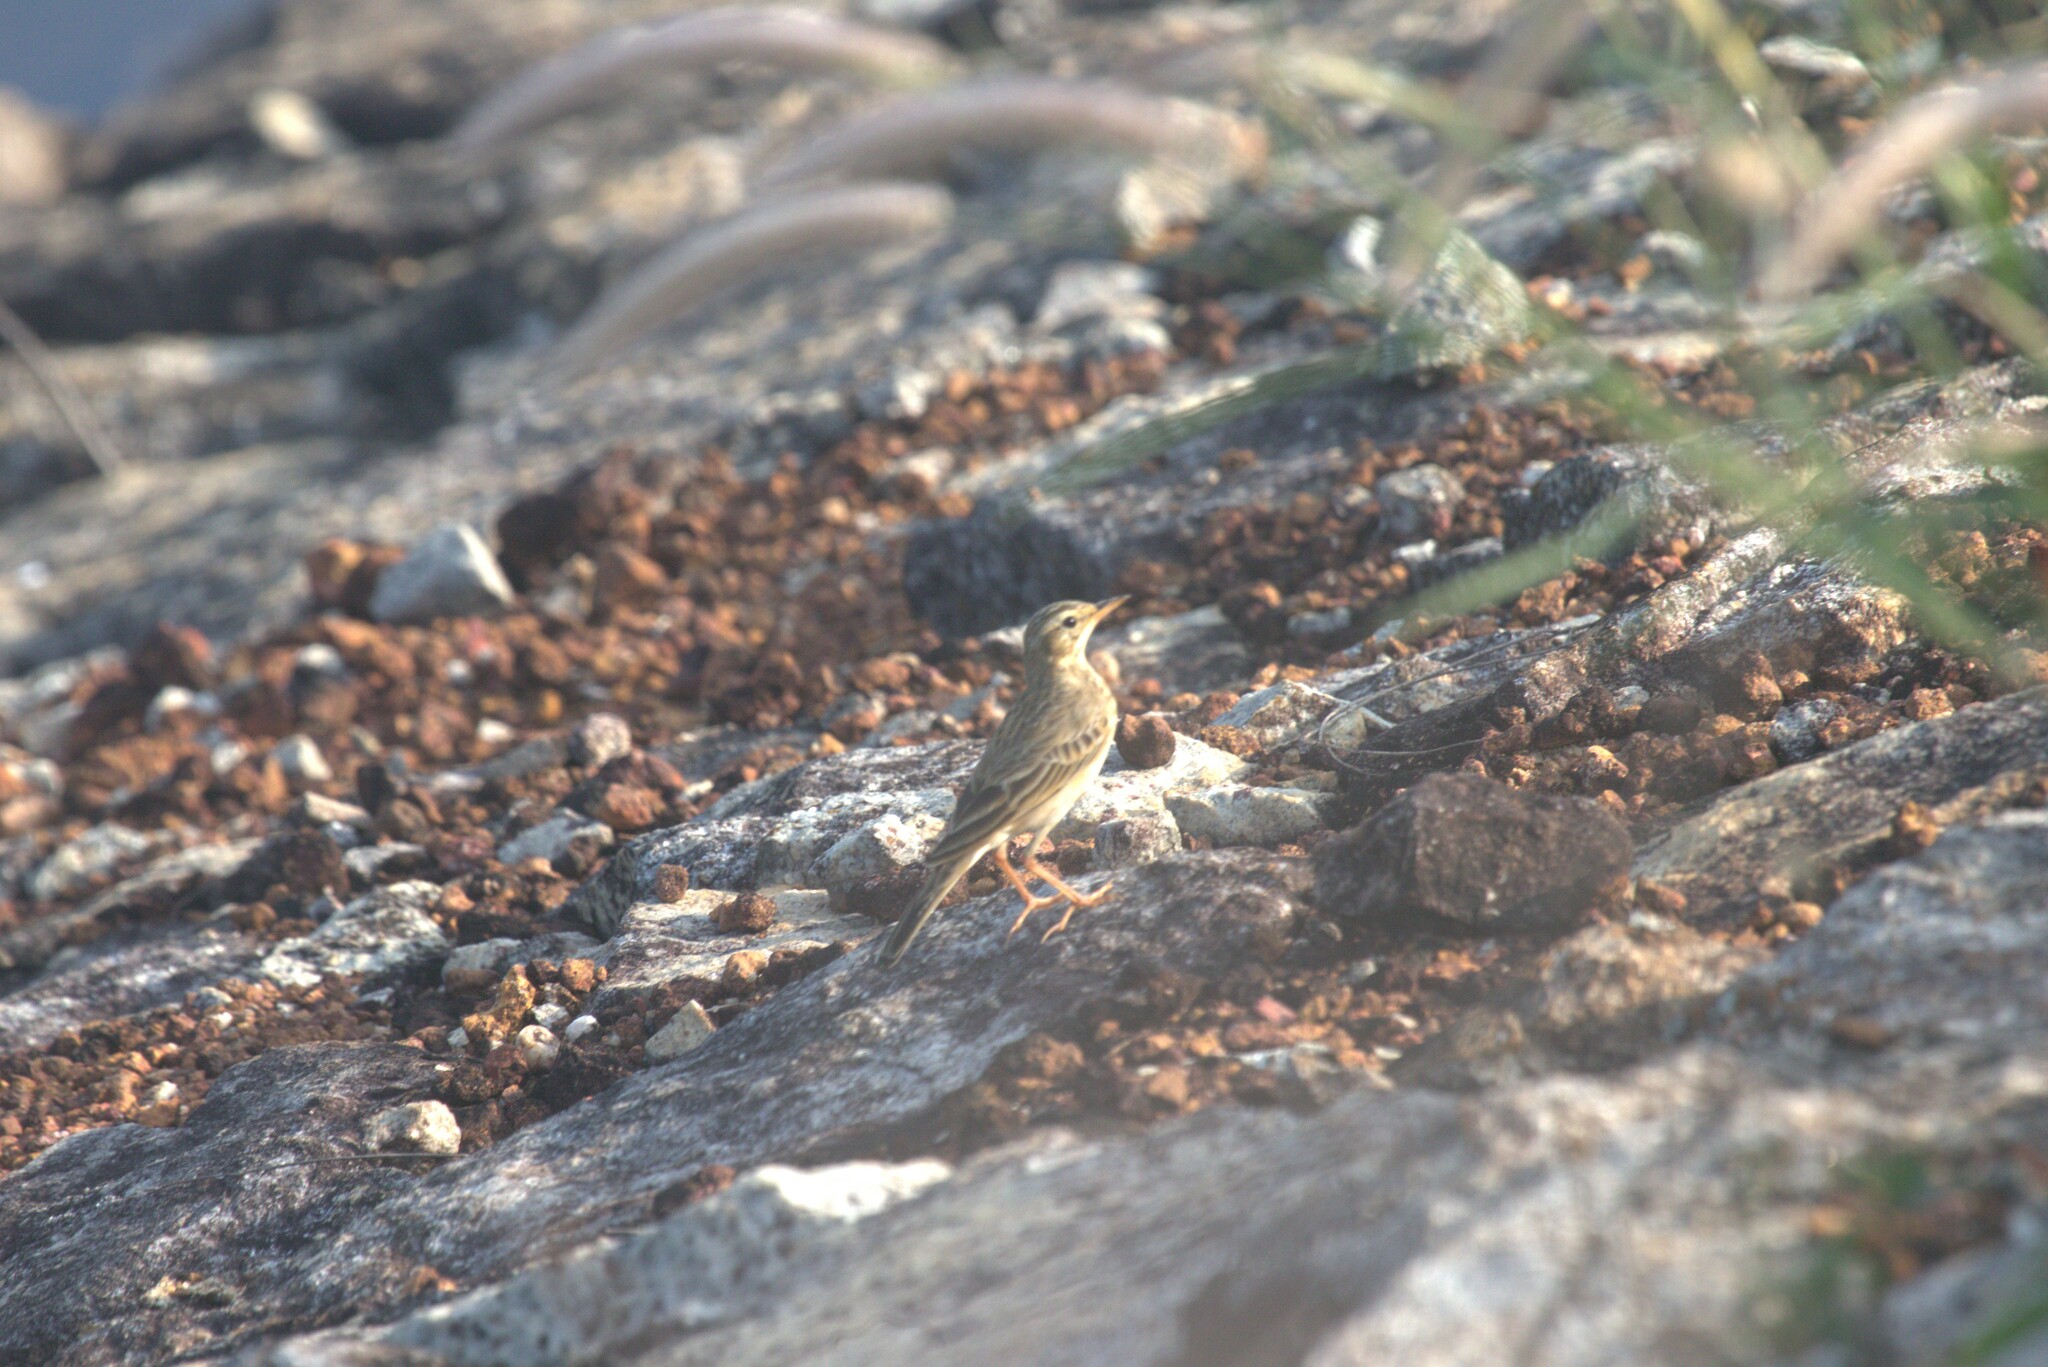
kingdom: Animalia
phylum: Chordata
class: Aves
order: Passeriformes
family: Motacillidae
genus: Anthus
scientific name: Anthus rufulus
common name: Paddyfield pipit
